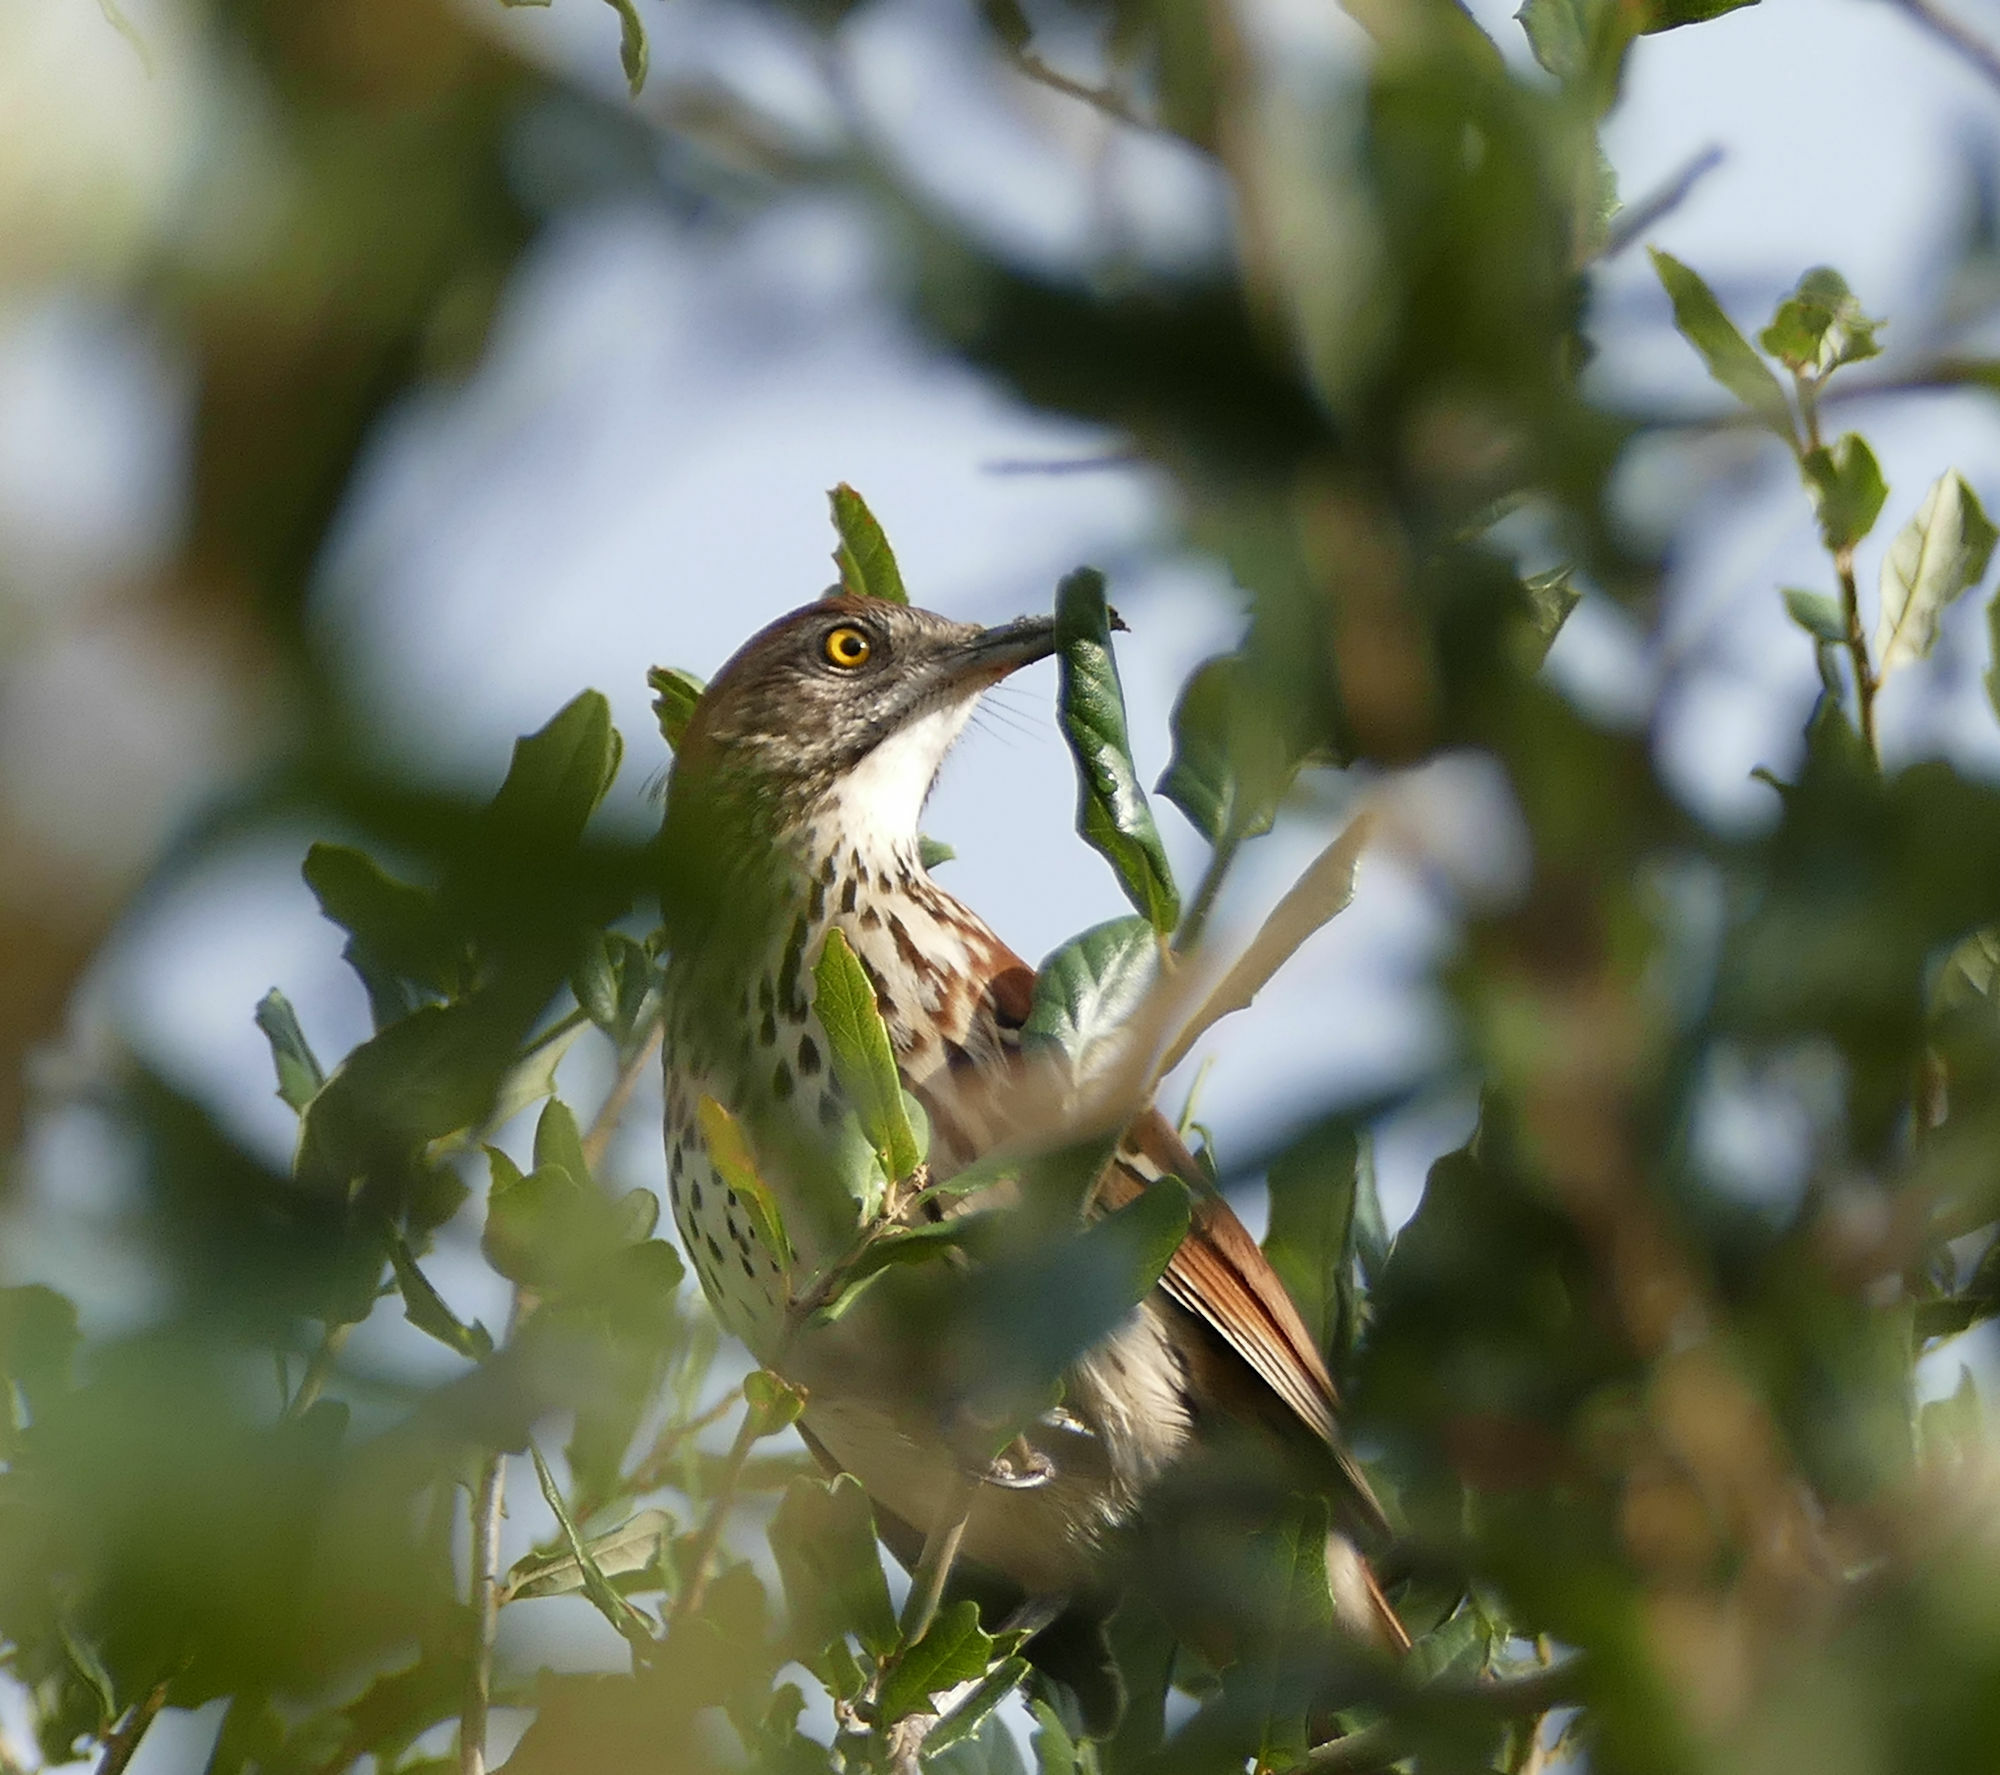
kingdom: Animalia
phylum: Chordata
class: Aves
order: Passeriformes
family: Mimidae
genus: Toxostoma
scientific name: Toxostoma rufum
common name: Brown thrasher
